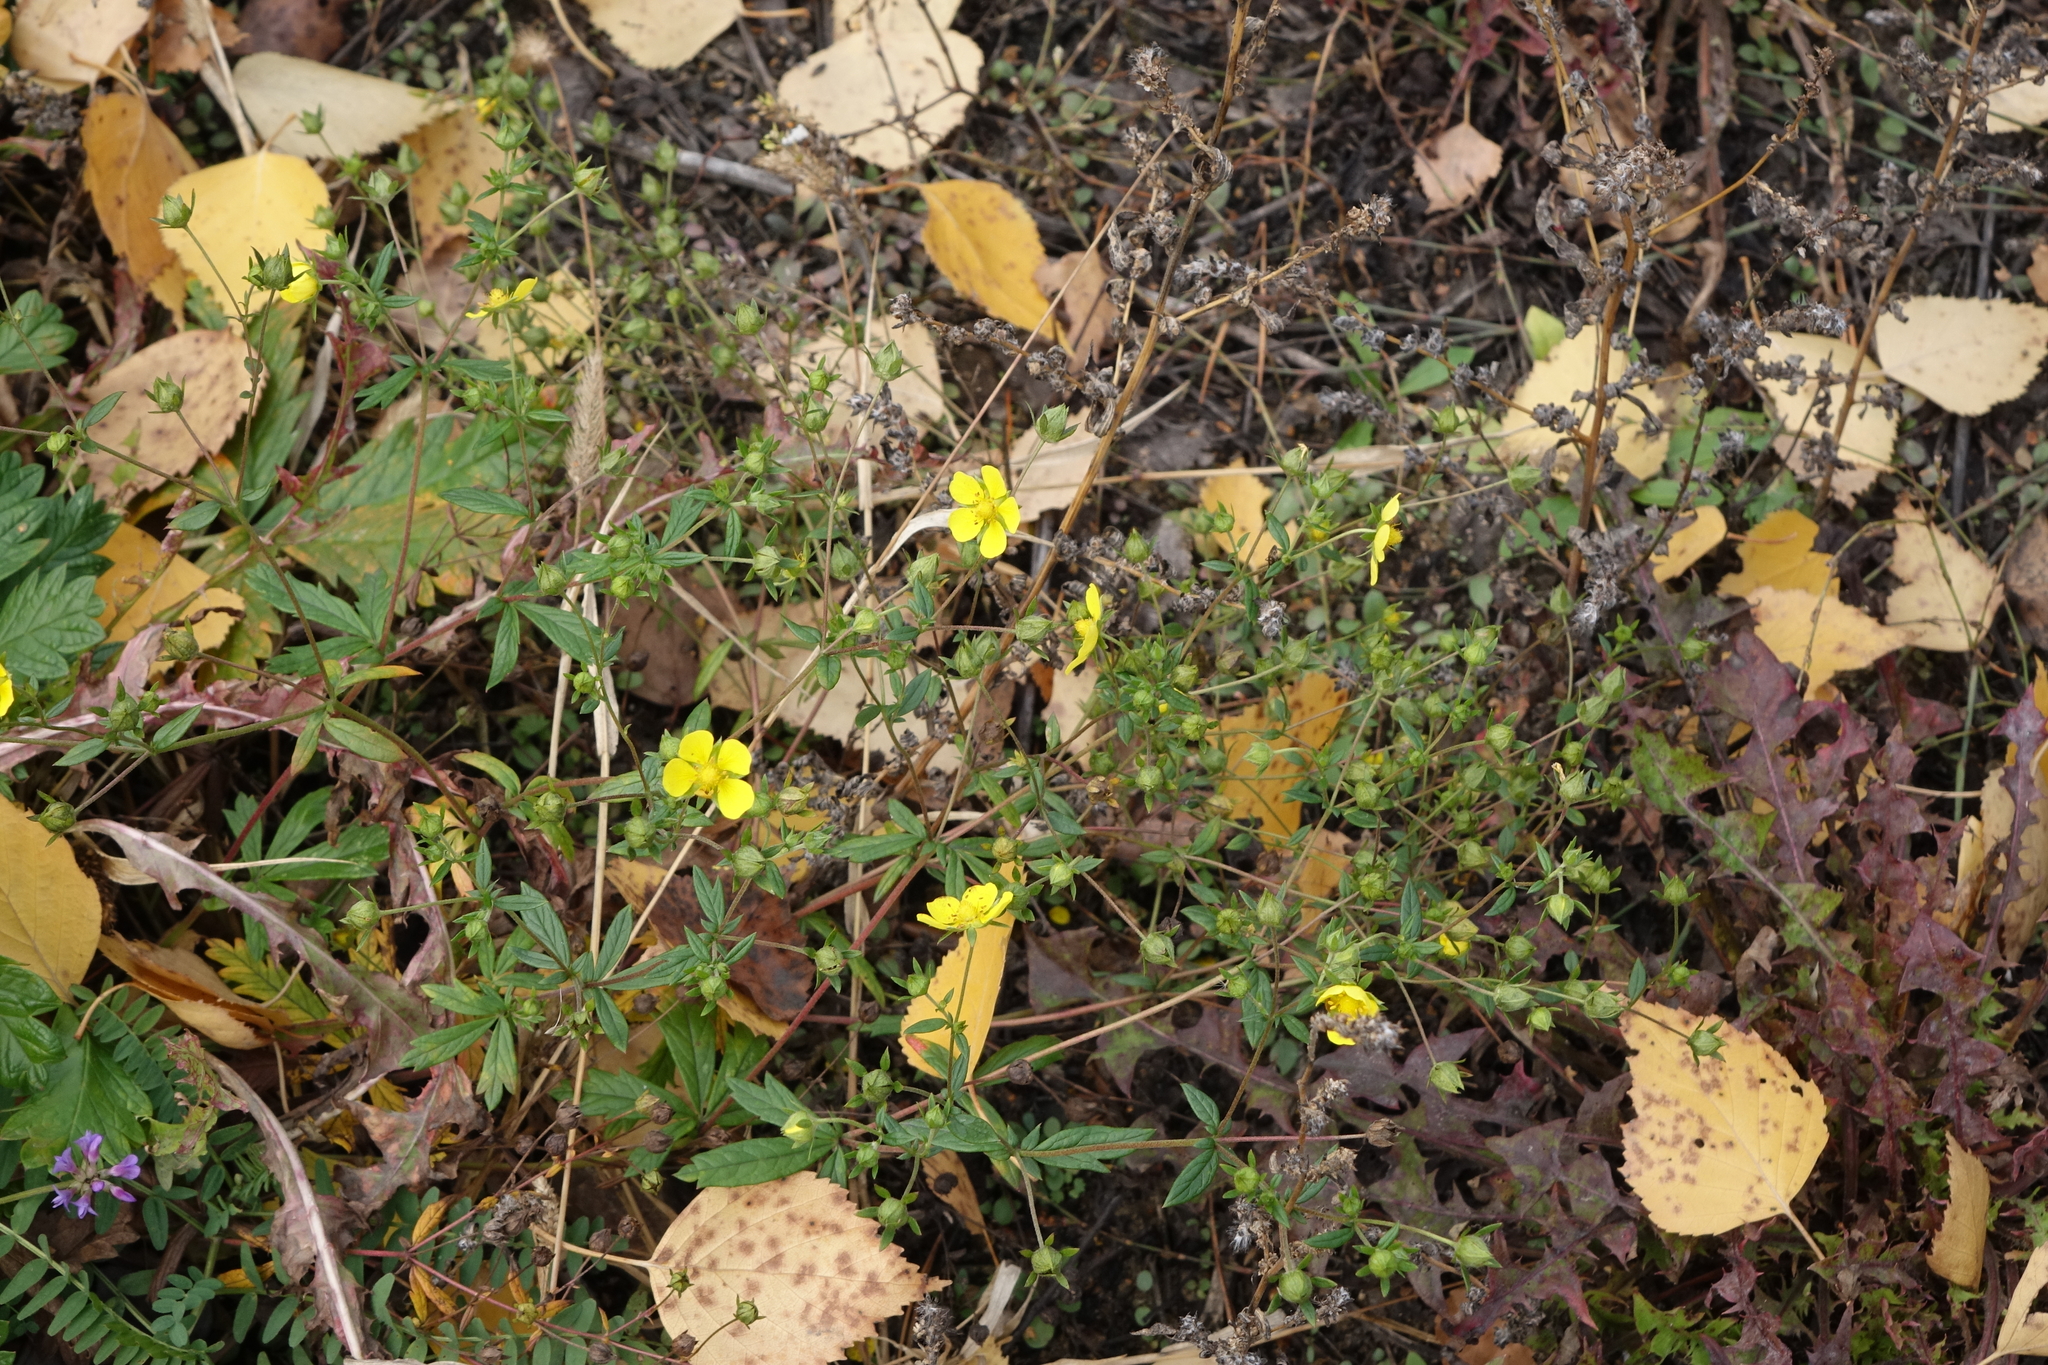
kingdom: Plantae
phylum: Tracheophyta
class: Magnoliopsida
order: Rosales
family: Rosaceae
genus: Potentilla
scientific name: Potentilla argentea
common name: Hoary cinquefoil
